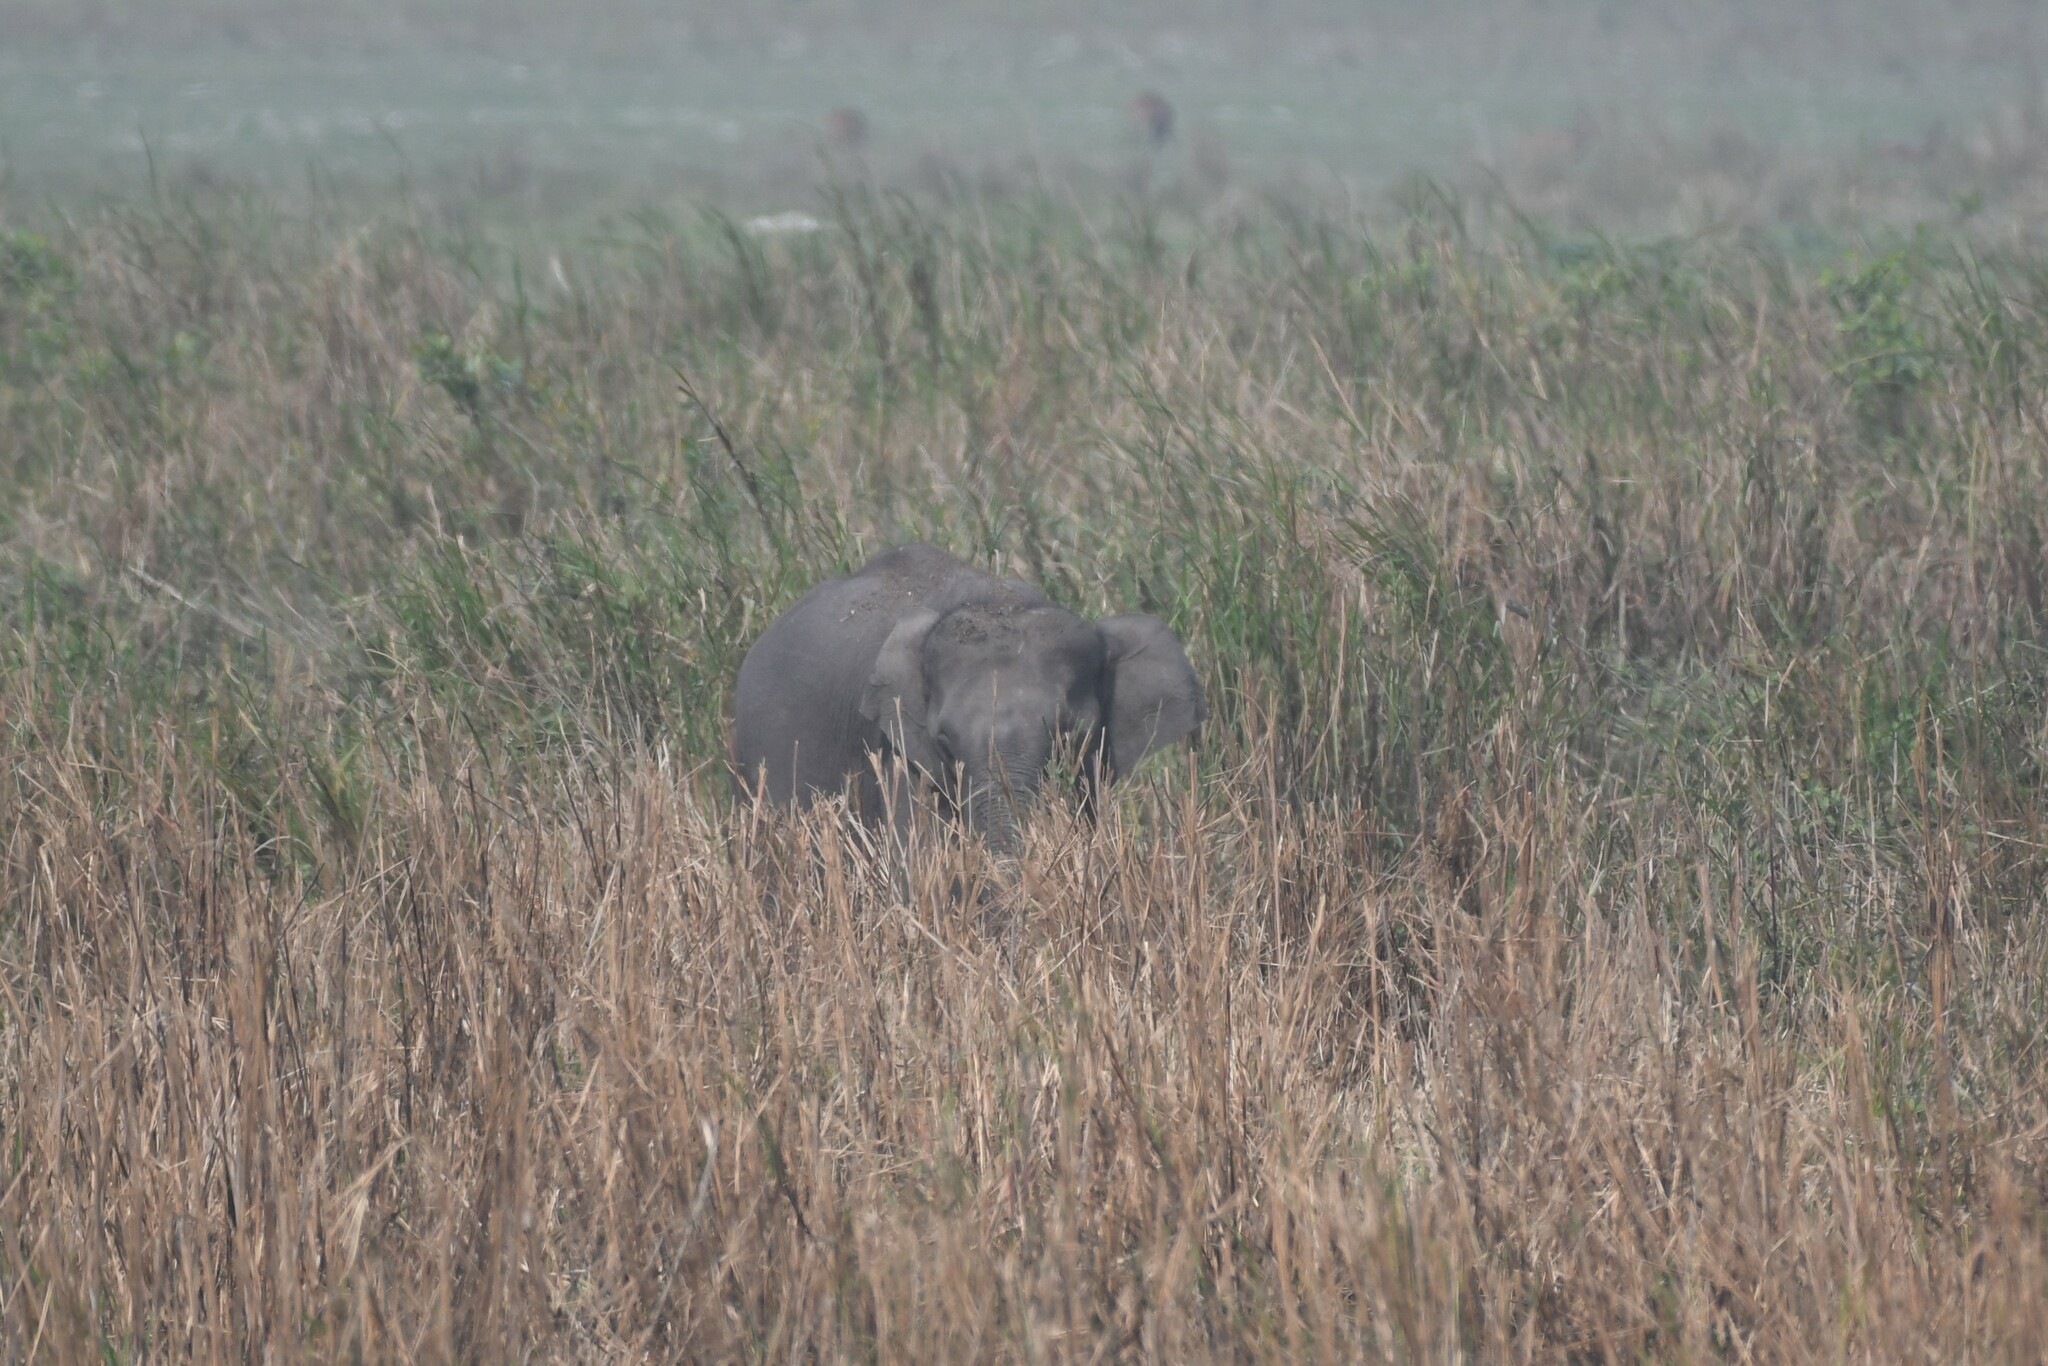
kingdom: Animalia
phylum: Chordata
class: Mammalia
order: Proboscidea
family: Elephantidae
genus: Elephas
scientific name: Elephas maximus
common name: Asian elephant
